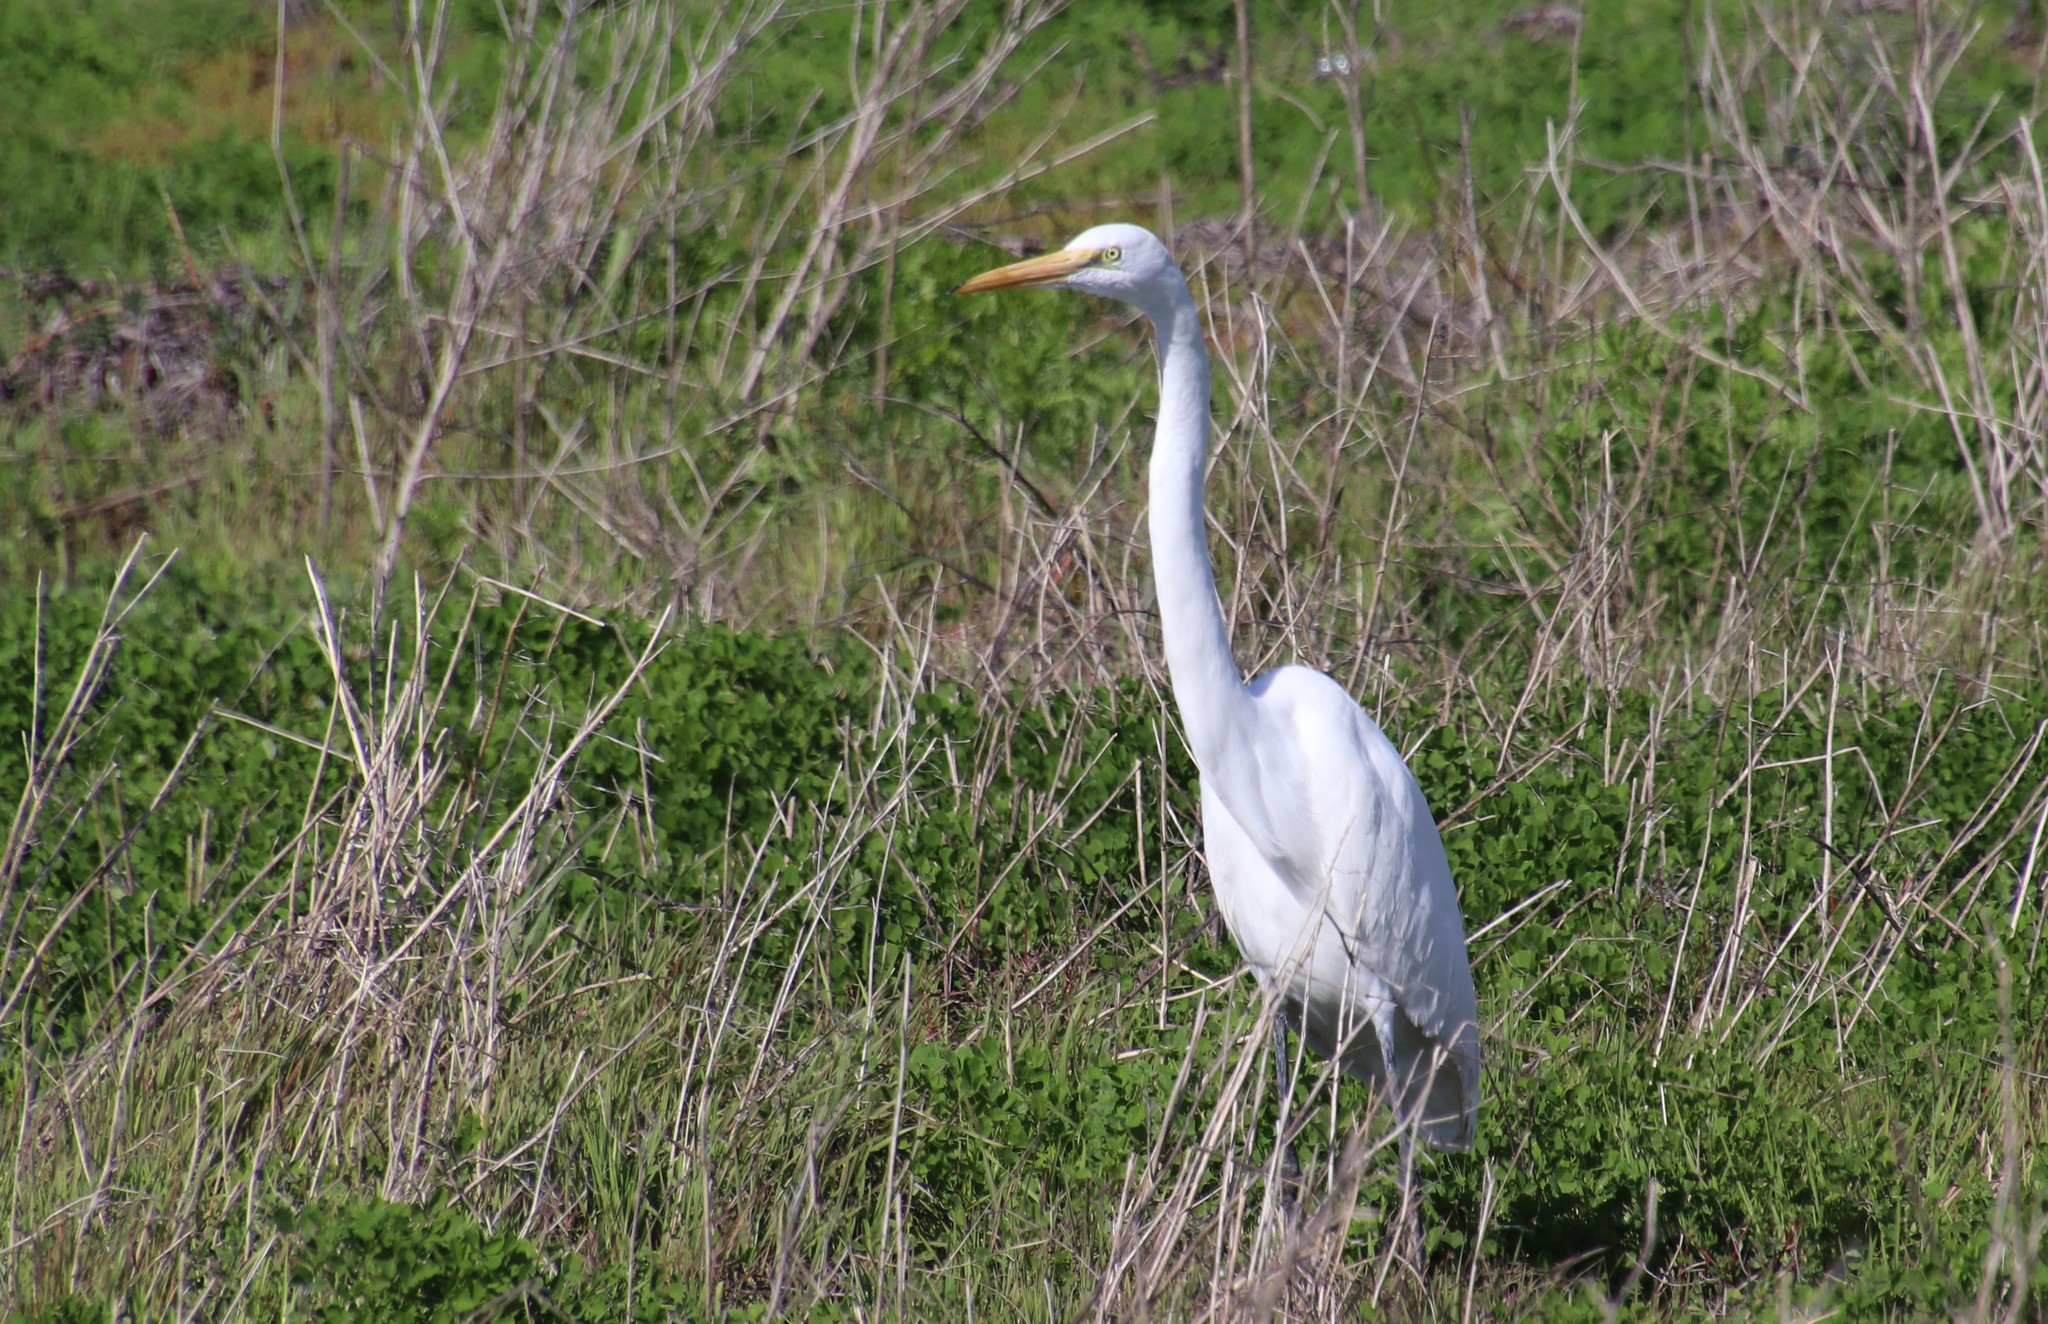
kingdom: Animalia
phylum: Chordata
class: Aves
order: Pelecaniformes
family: Ardeidae
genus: Ardea
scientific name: Ardea alba
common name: Great egret
